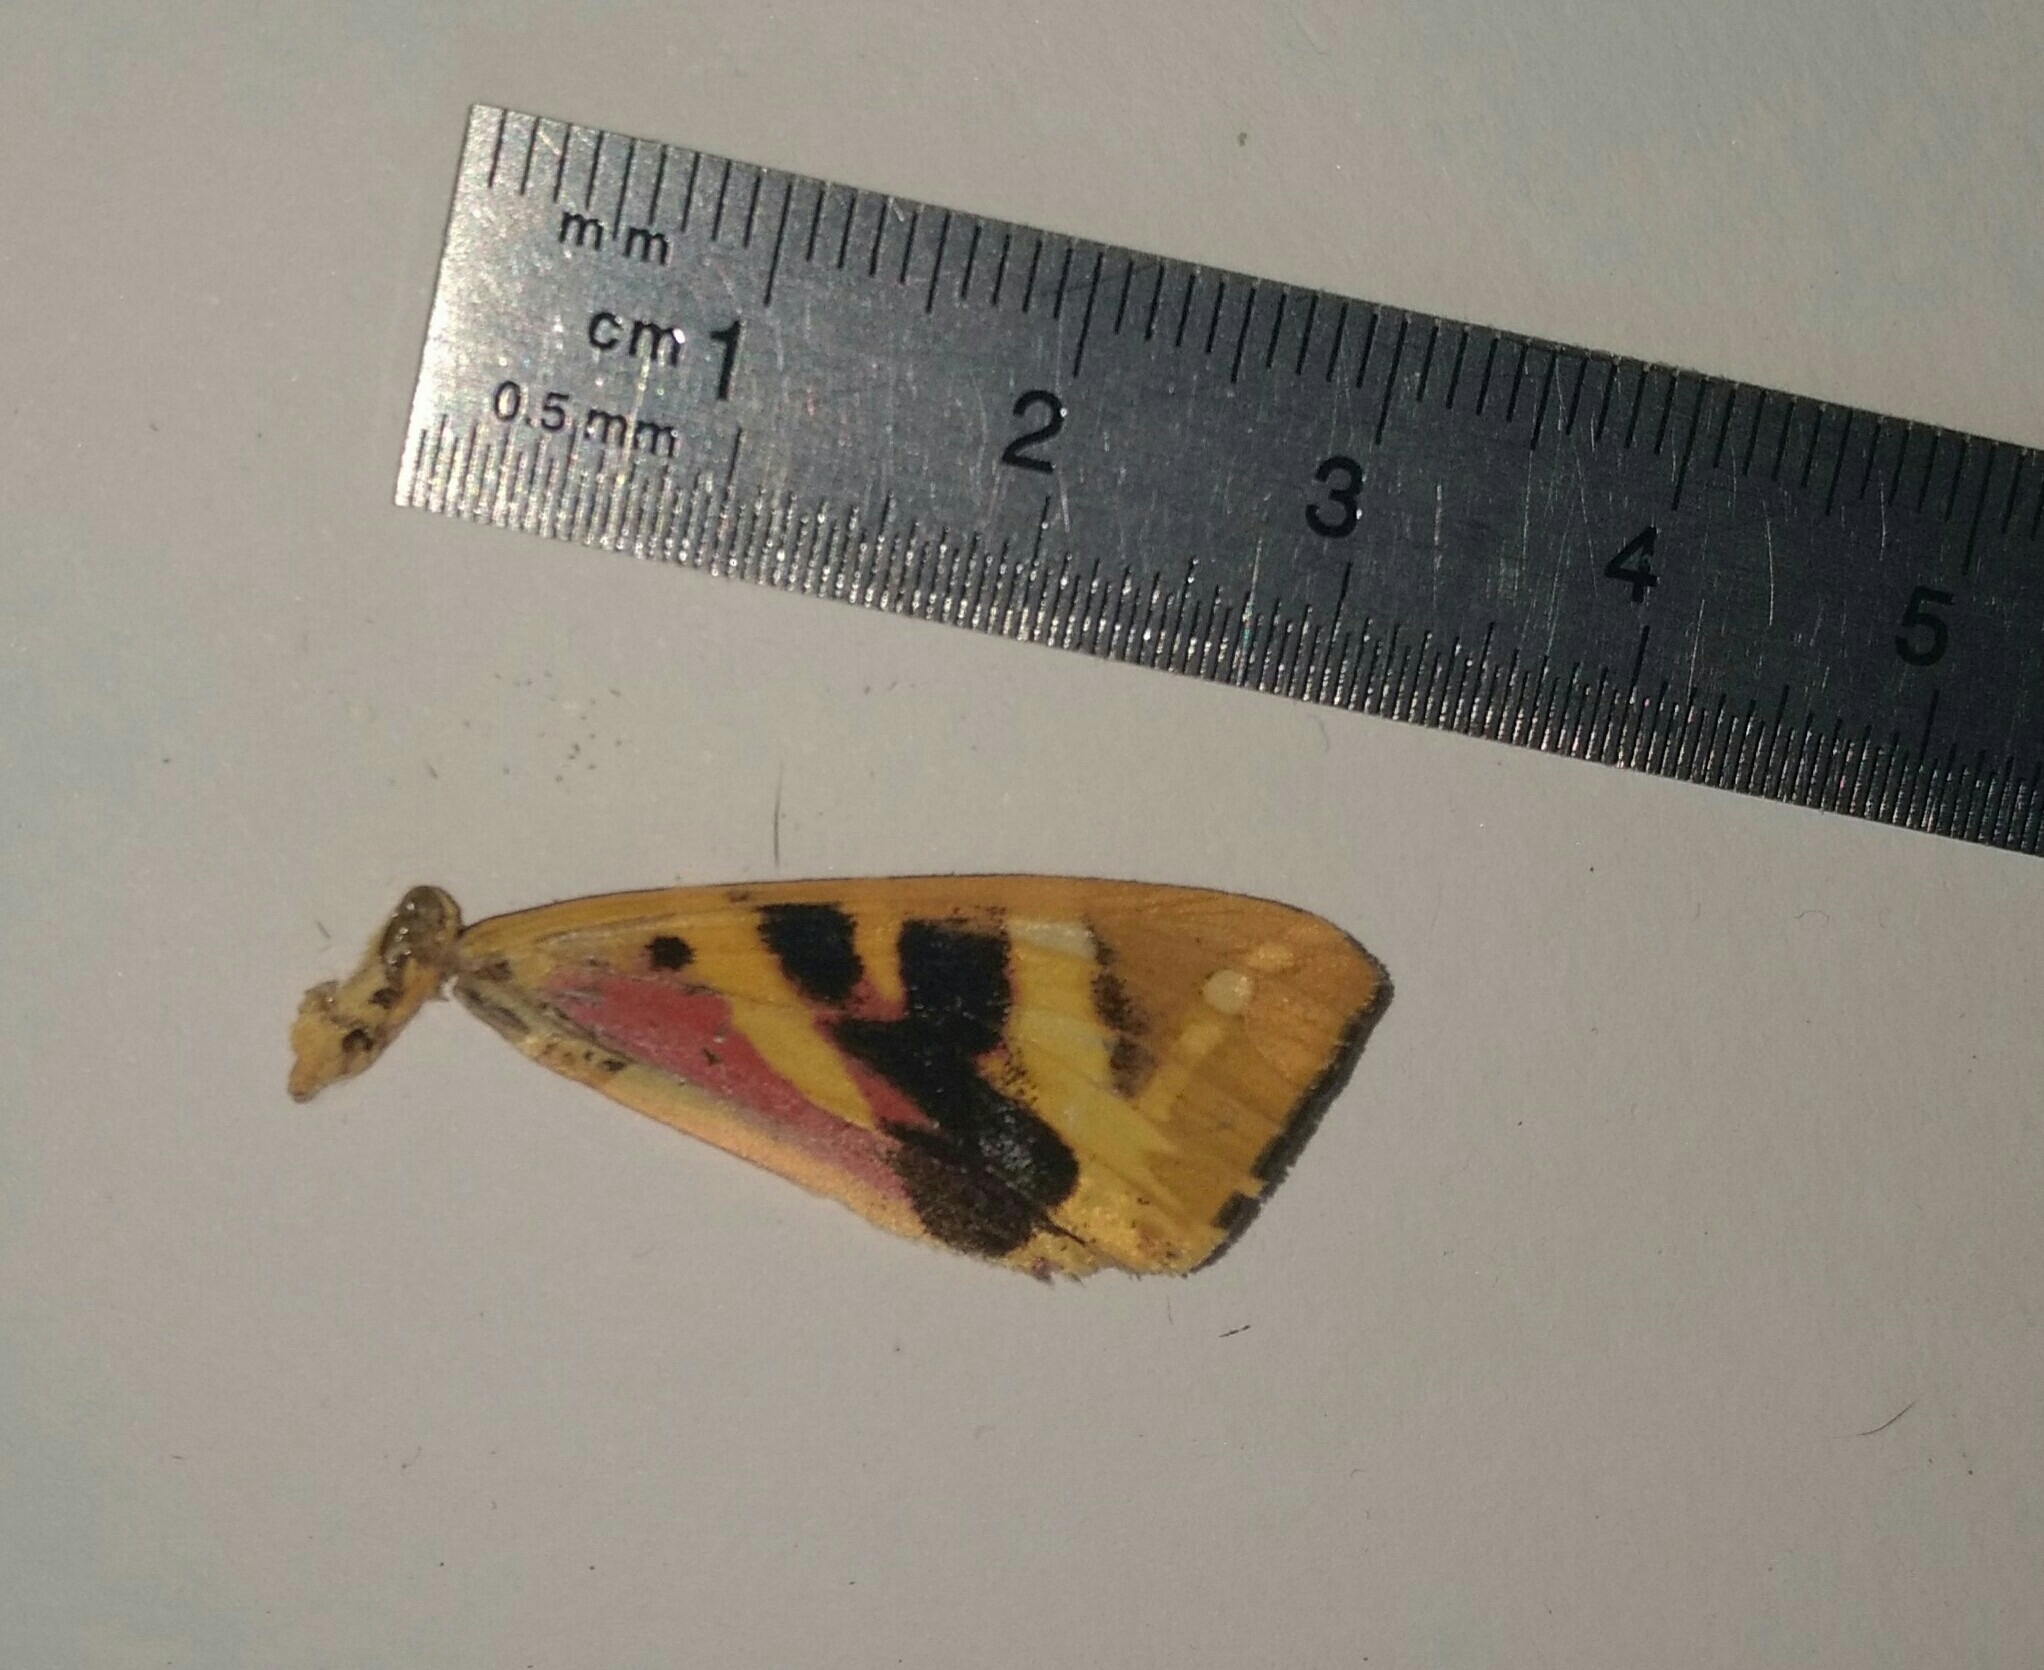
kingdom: Animalia
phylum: Arthropoda
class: Insecta
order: Lepidoptera
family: Erebidae
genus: Euplagia
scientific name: Euplagia quadripunctaria
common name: Jersey tiger
